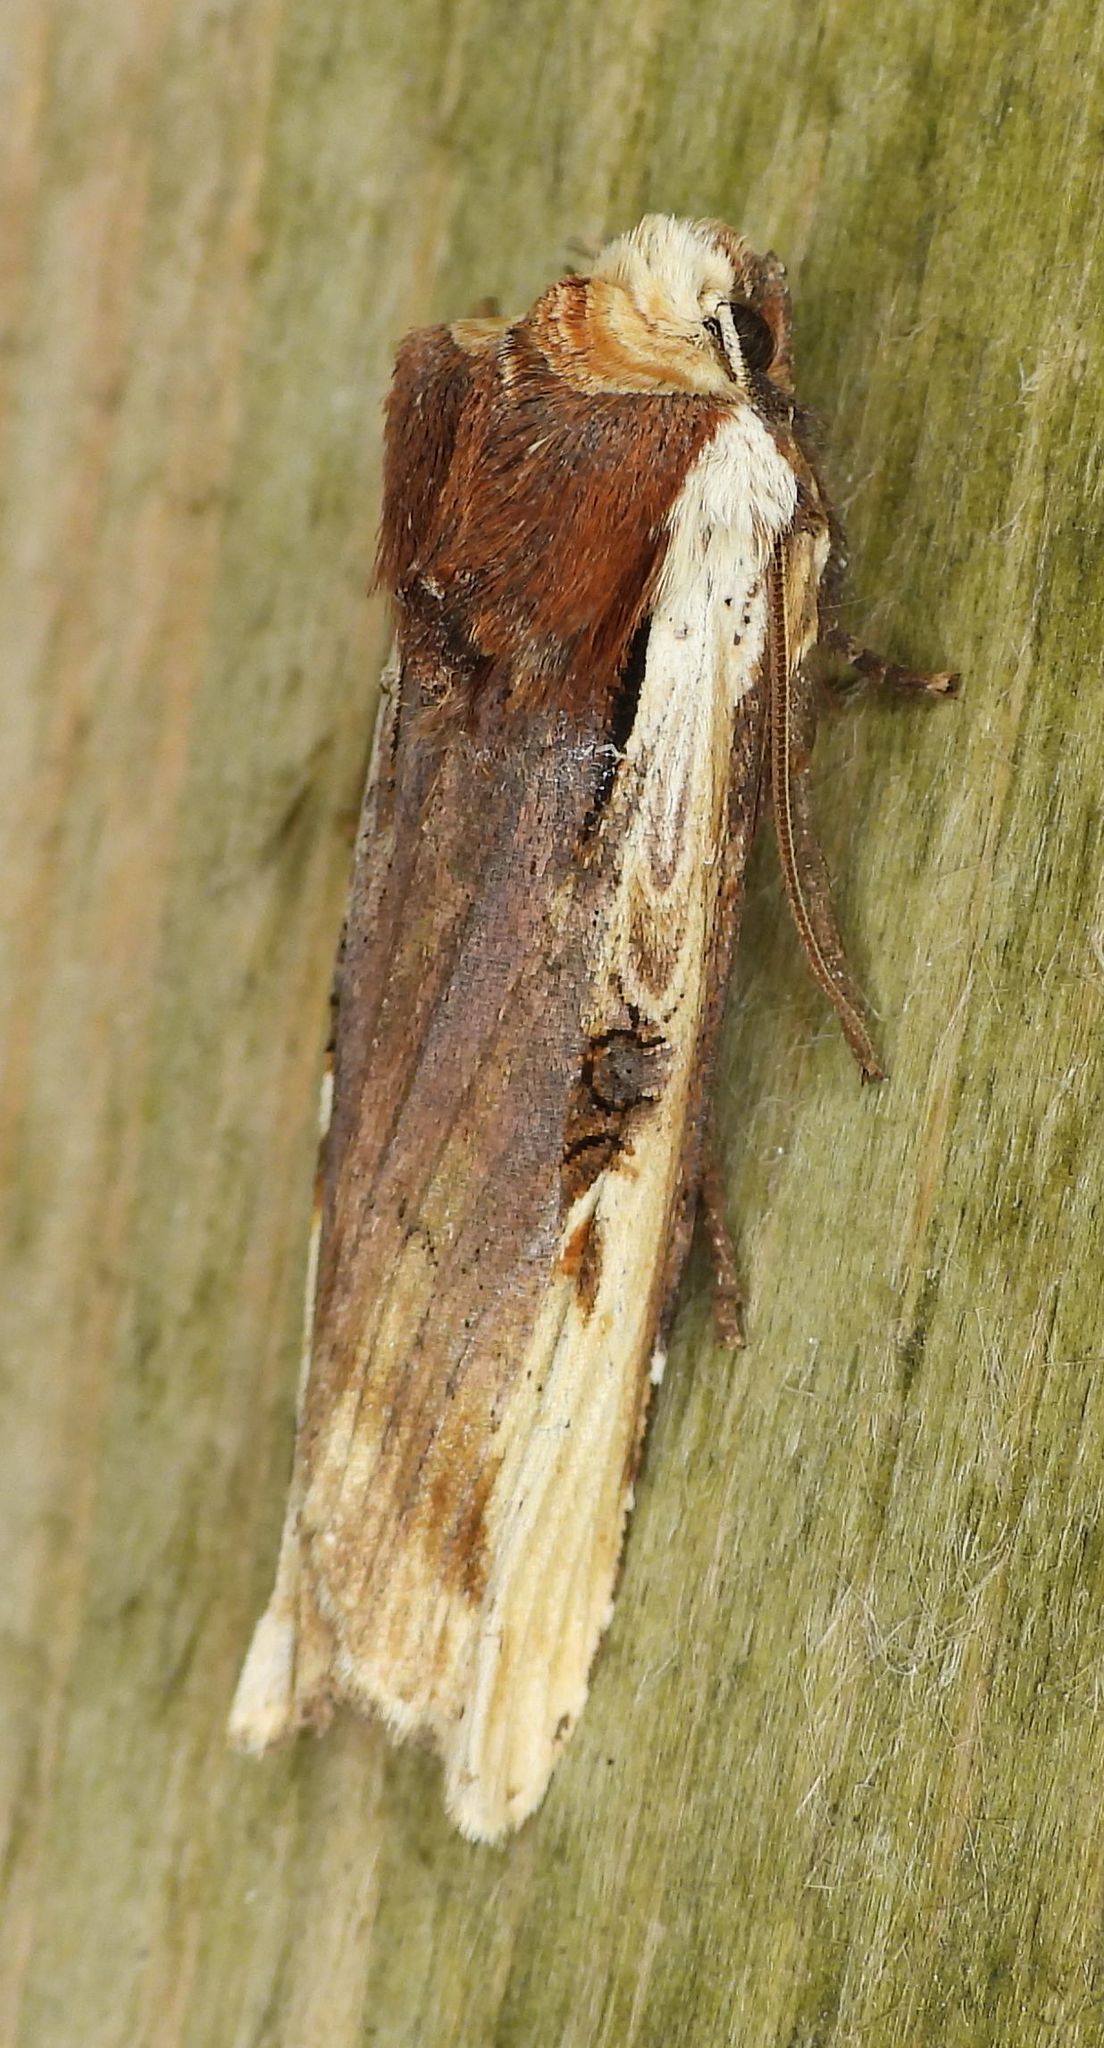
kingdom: Animalia
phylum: Arthropoda
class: Insecta
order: Lepidoptera
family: Noctuidae
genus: Xylena
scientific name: Xylena curvimacula
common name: Dot-and-dash swordgrass moth
